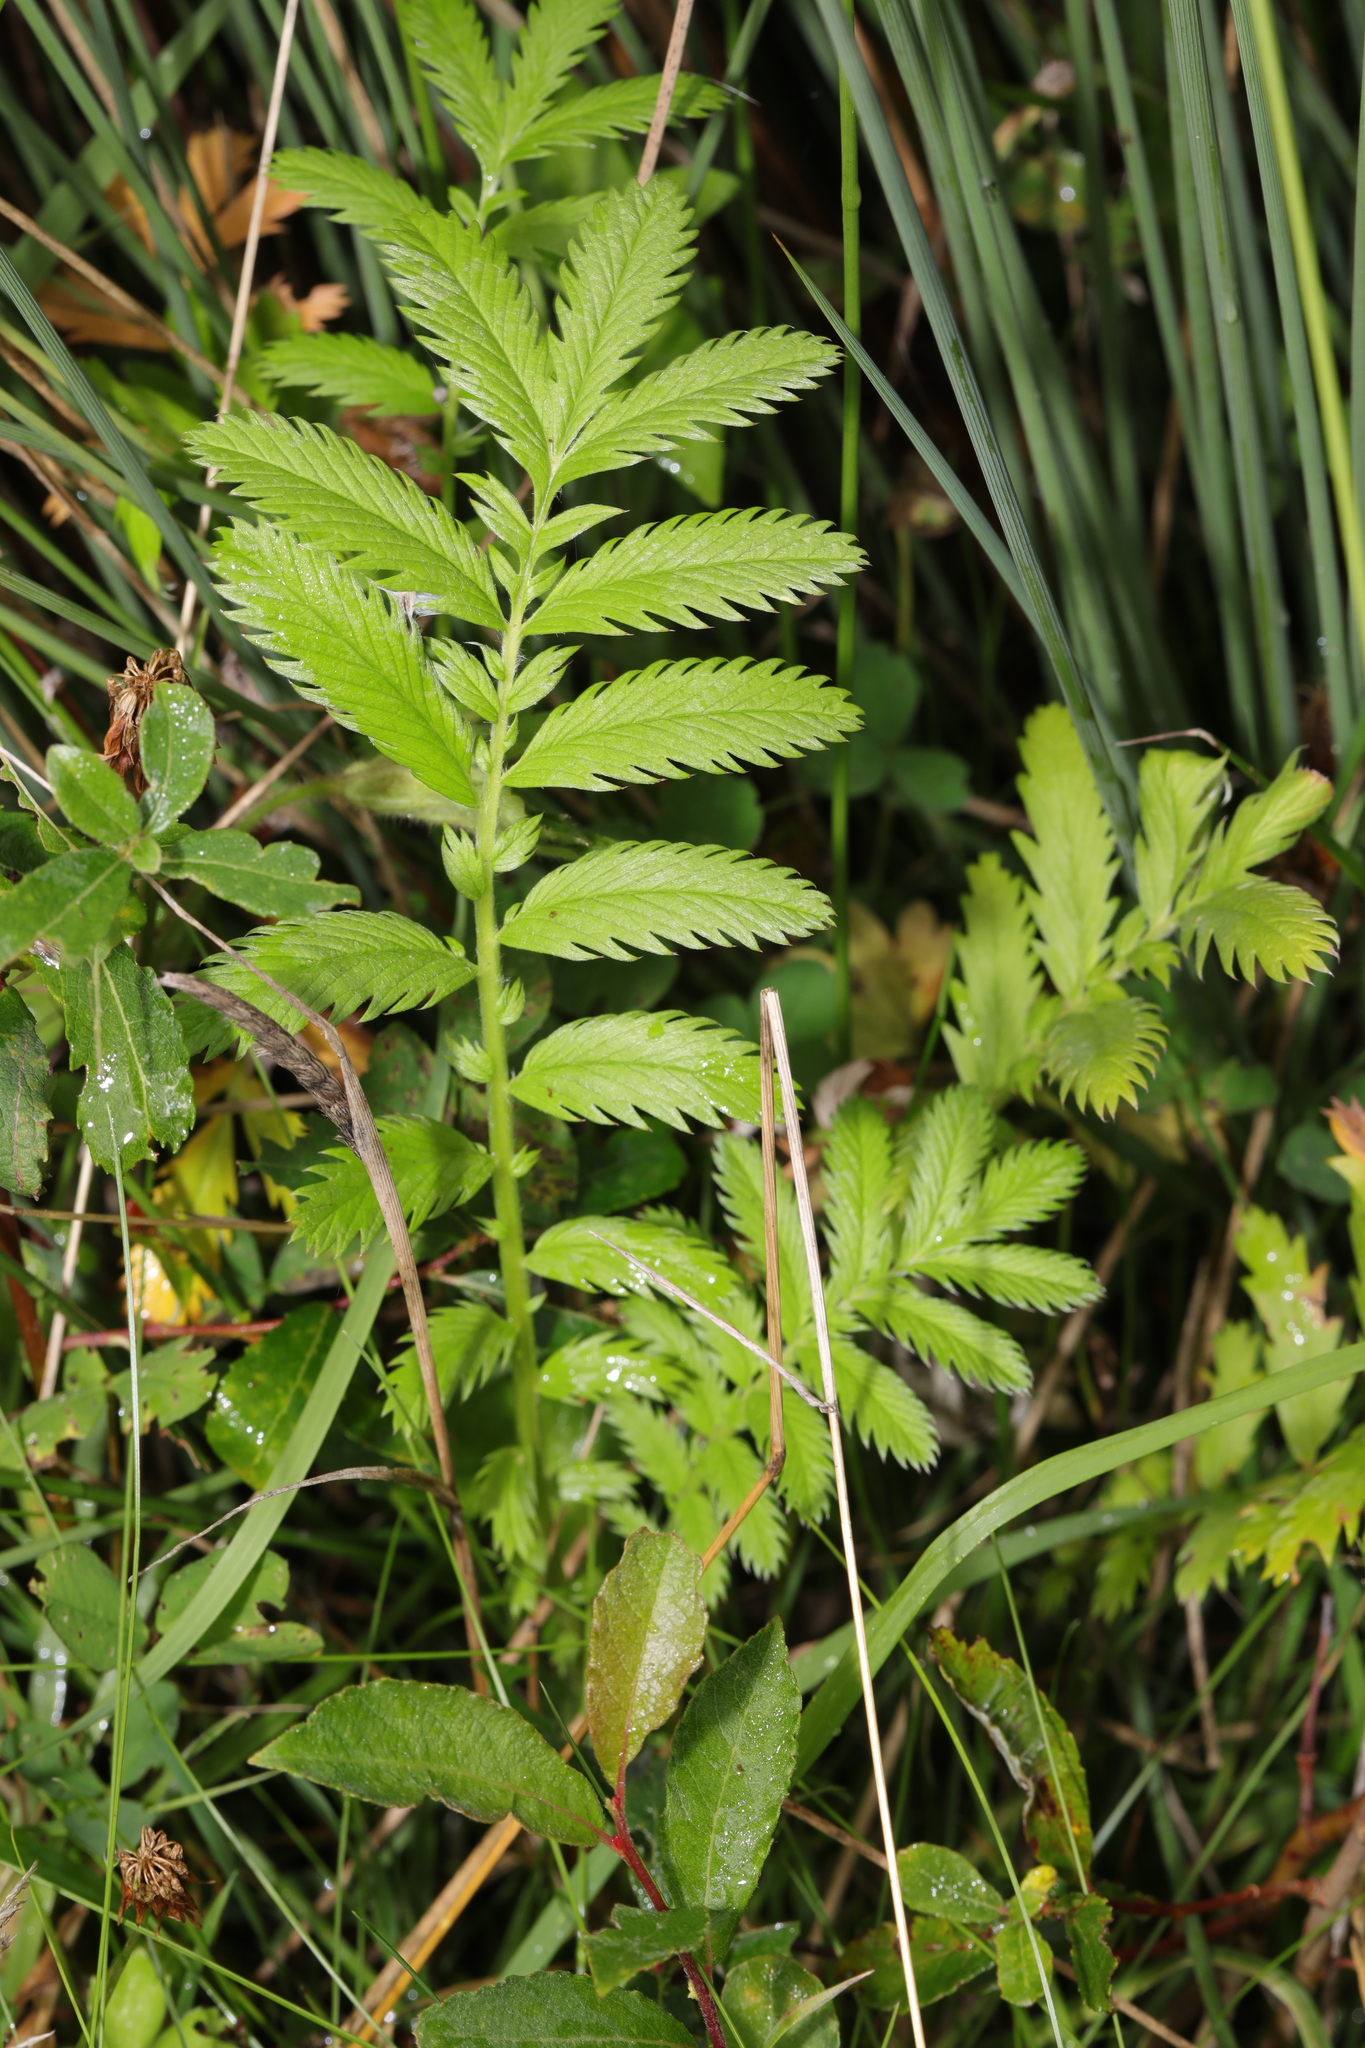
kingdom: Plantae
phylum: Tracheophyta
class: Magnoliopsida
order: Rosales
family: Rosaceae
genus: Argentina
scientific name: Argentina anserina
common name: Common silverweed
